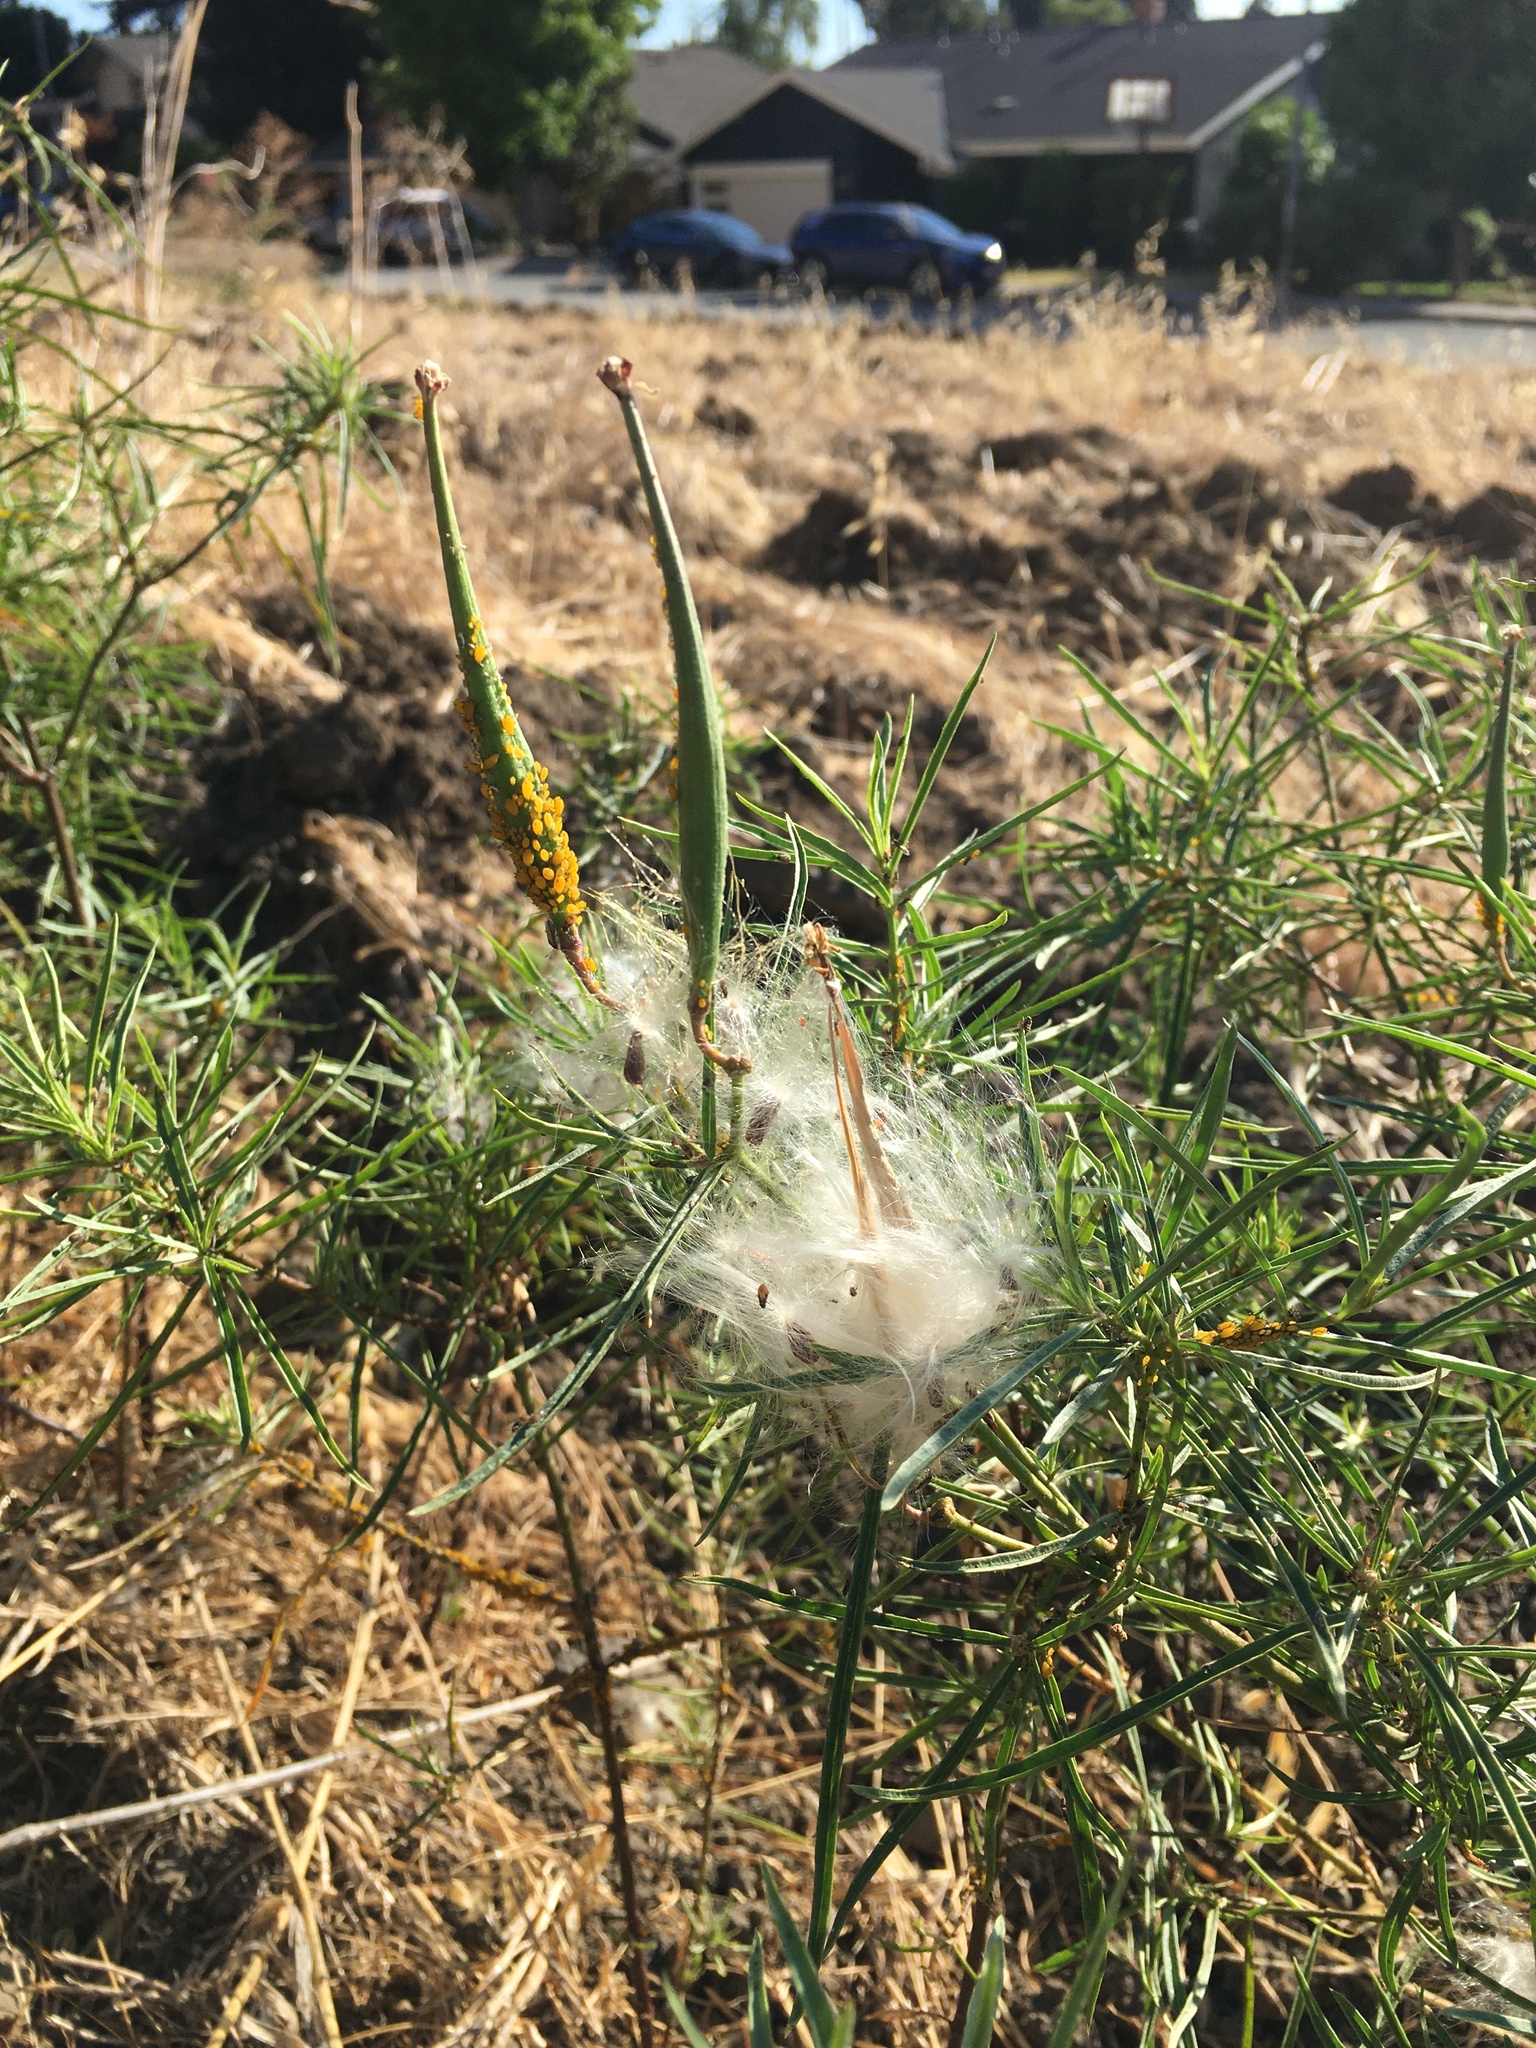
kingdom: Plantae
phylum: Tracheophyta
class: Magnoliopsida
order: Gentianales
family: Apocynaceae
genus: Asclepias
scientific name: Asclepias fascicularis
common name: Mexican milkweed
